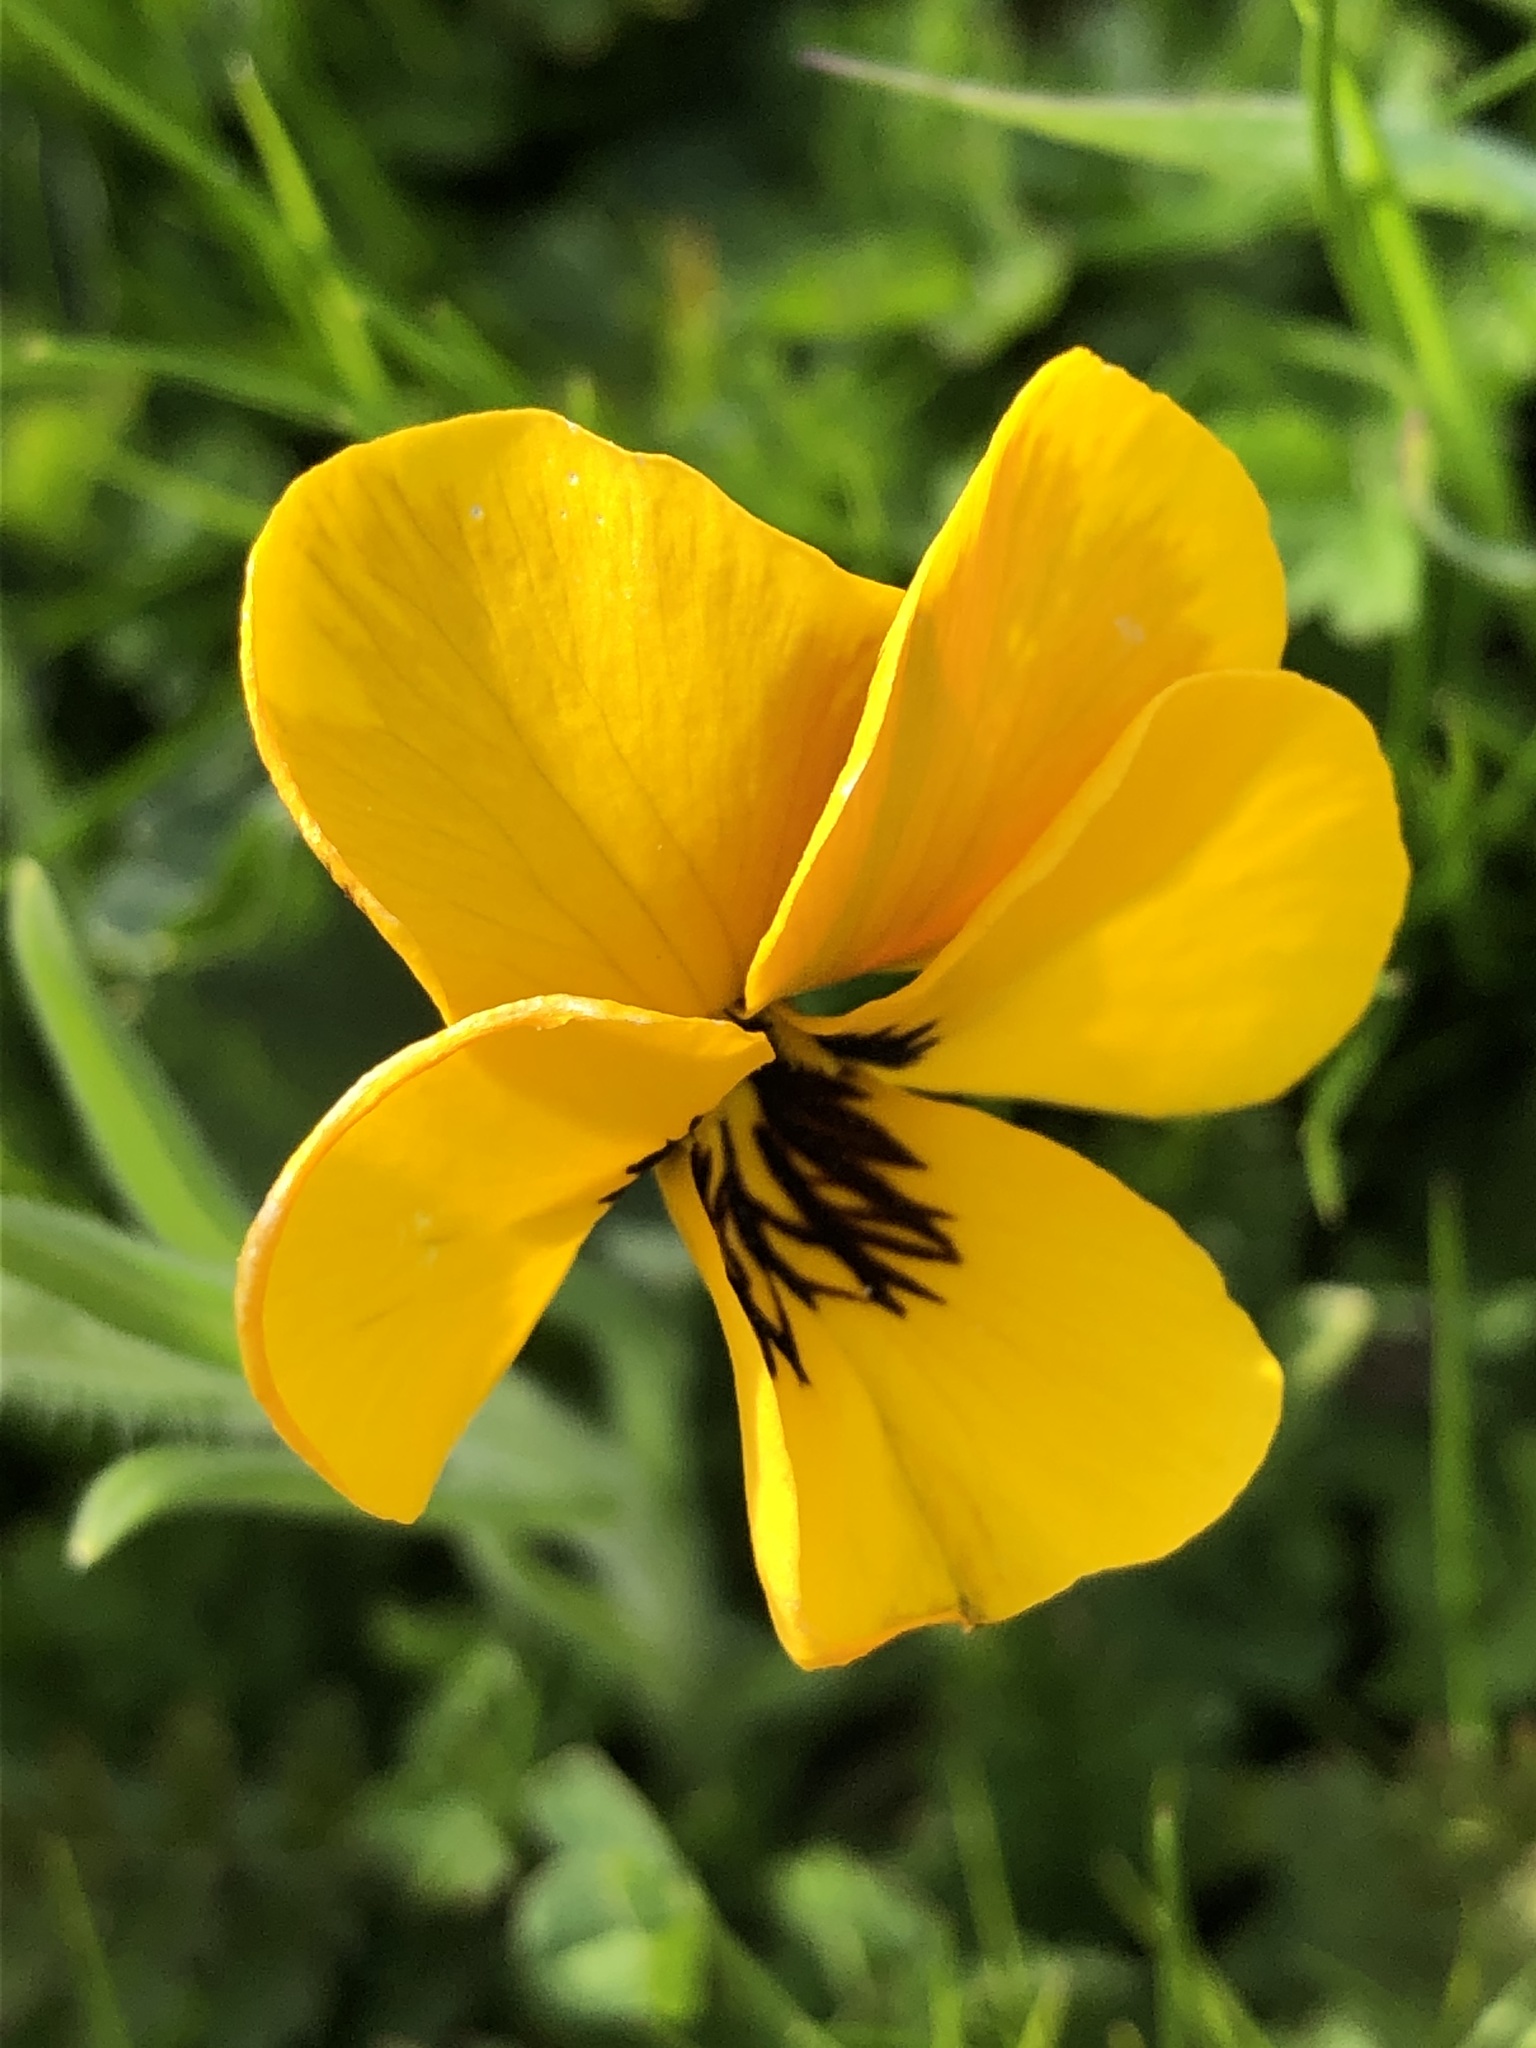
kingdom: Plantae
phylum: Tracheophyta
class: Magnoliopsida
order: Malpighiales
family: Violaceae
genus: Viola
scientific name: Viola pedunculata
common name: California golden violet
